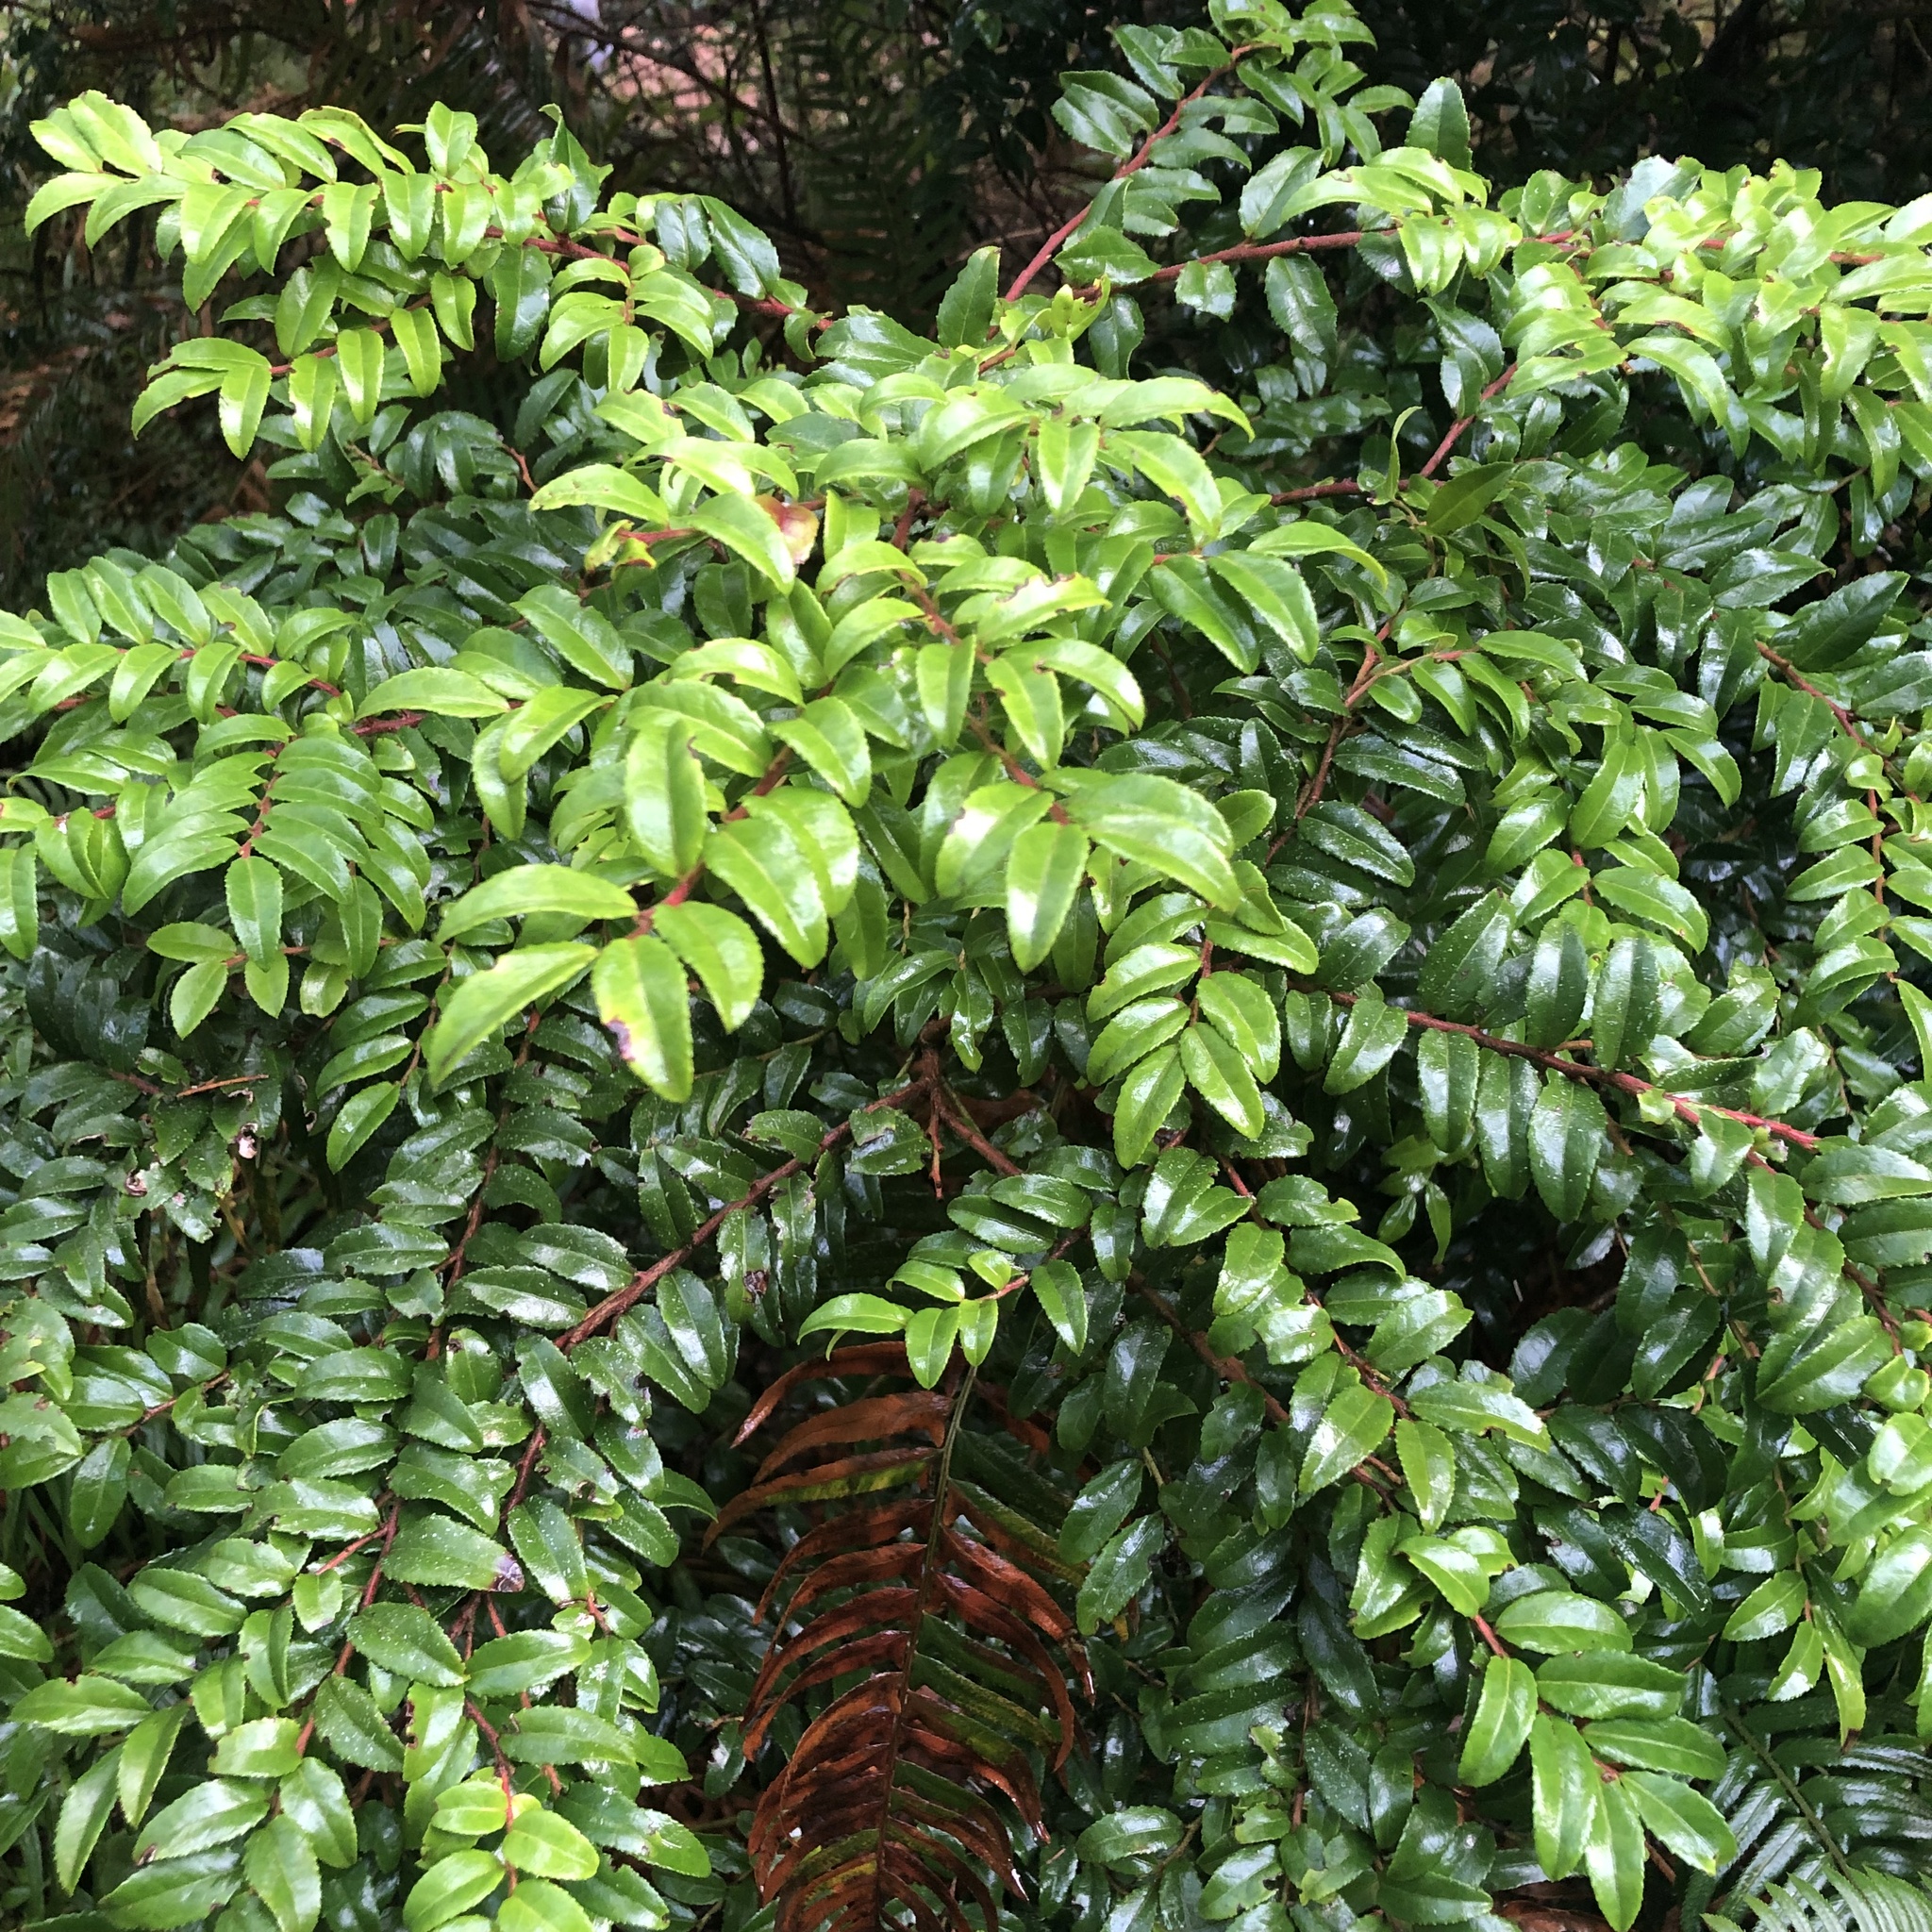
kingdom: Plantae
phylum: Tracheophyta
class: Magnoliopsida
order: Ericales
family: Ericaceae
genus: Vaccinium
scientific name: Vaccinium ovatum
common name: California-huckleberry
